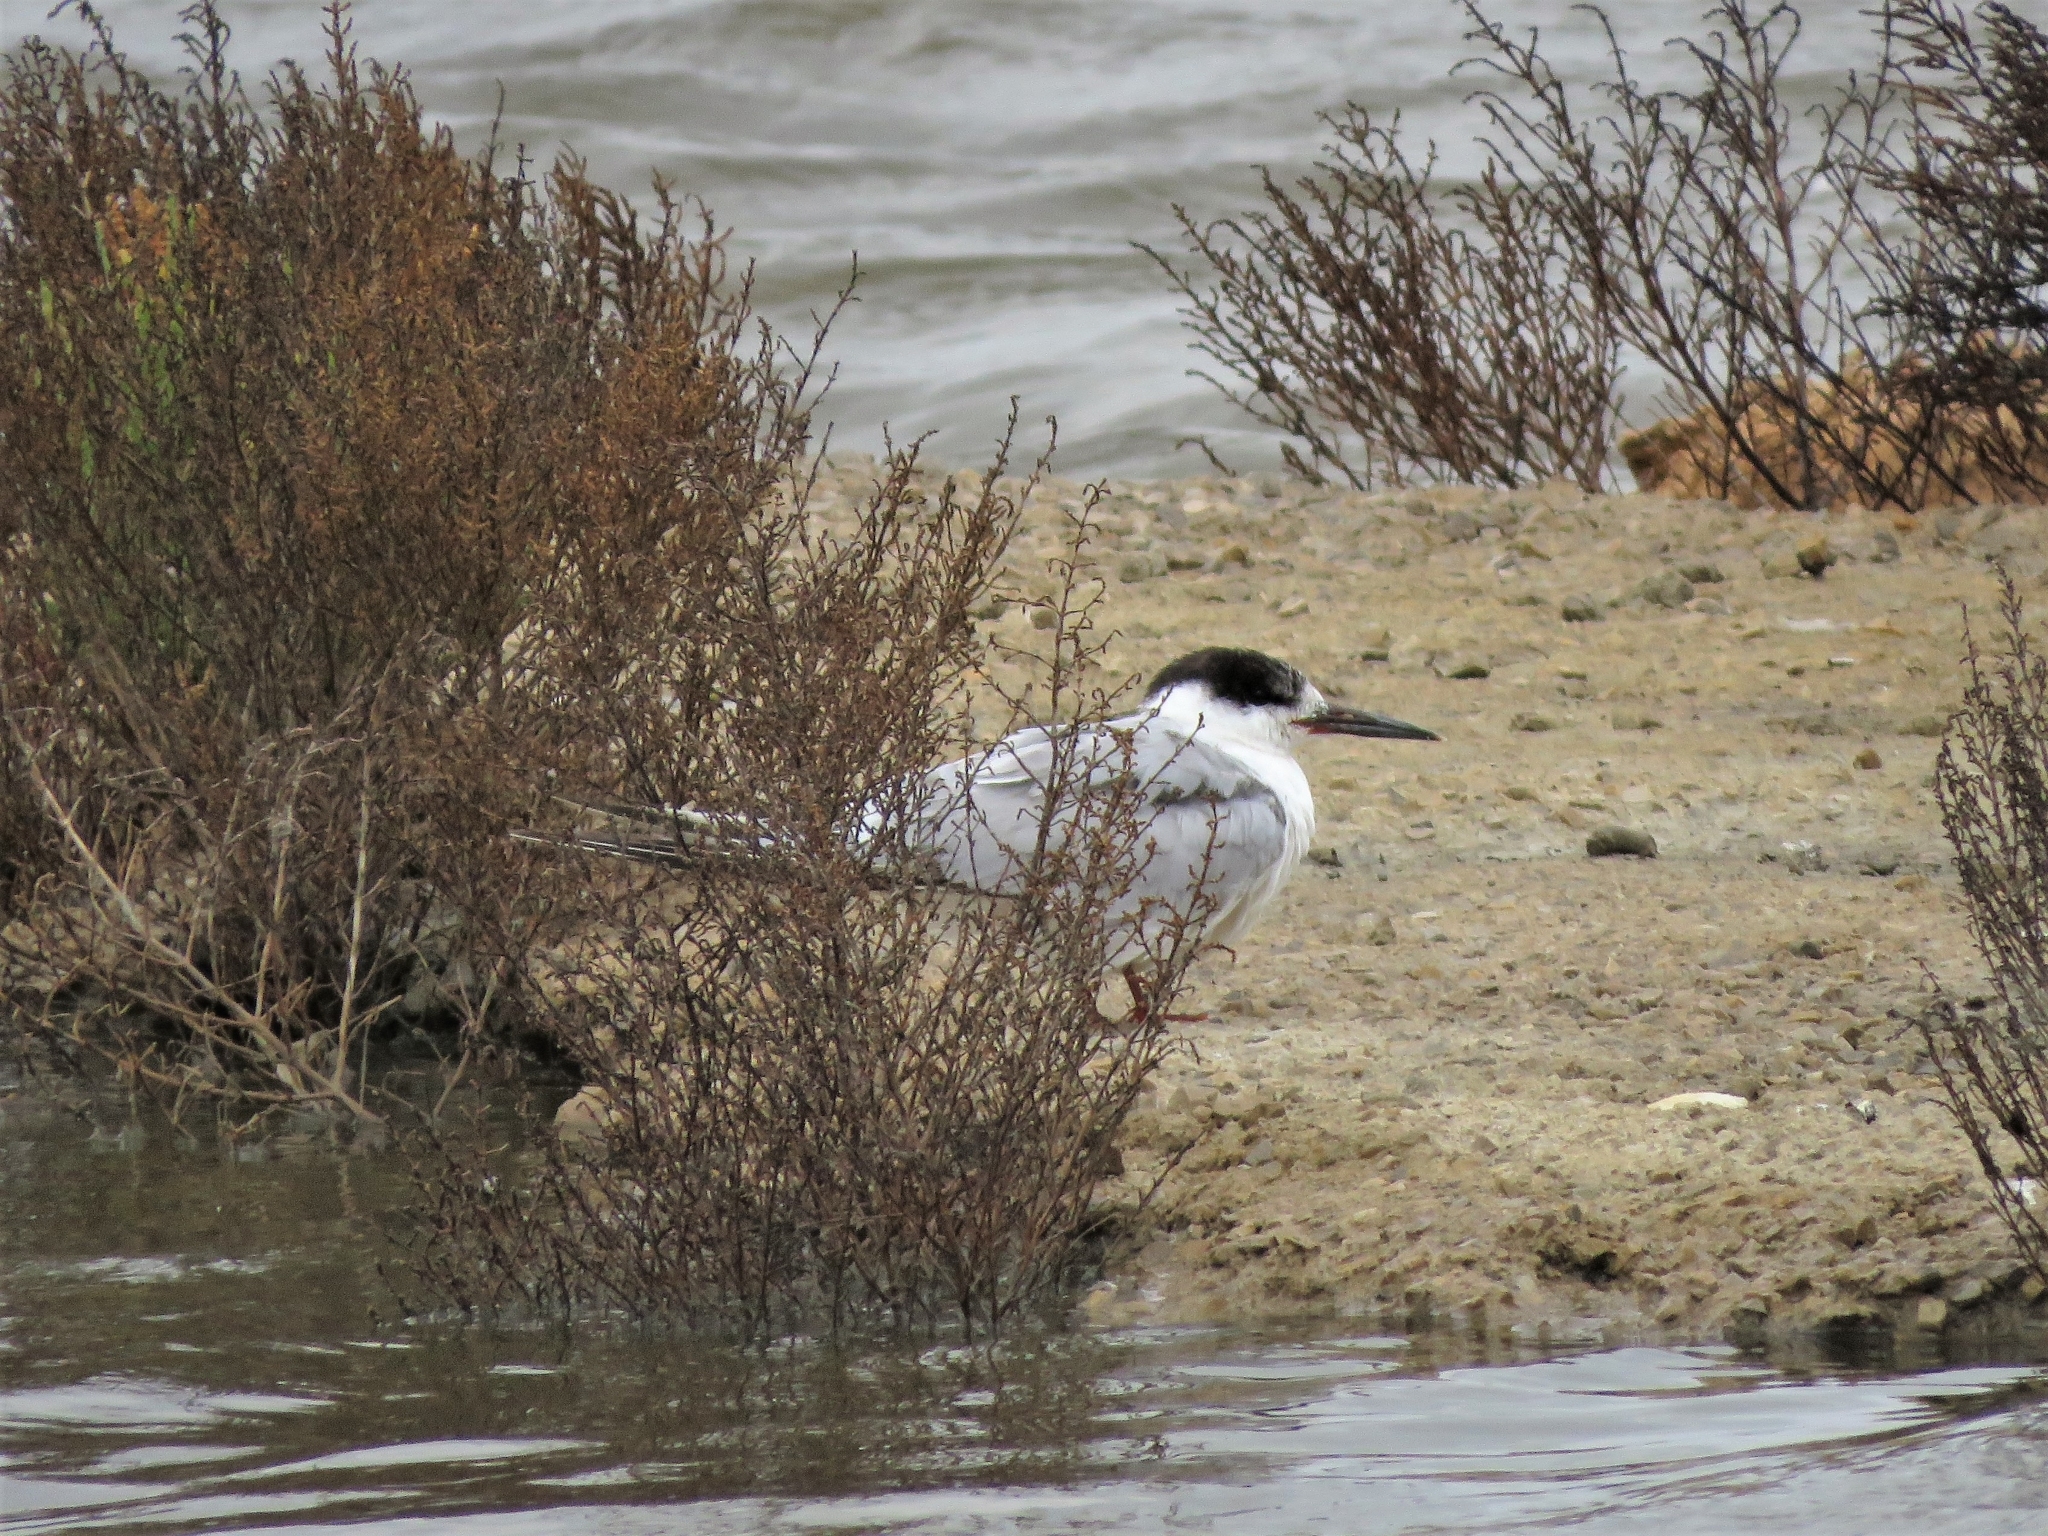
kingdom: Animalia
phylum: Chordata
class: Aves
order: Charadriiformes
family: Laridae
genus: Sterna
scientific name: Sterna hirundo
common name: Common tern
